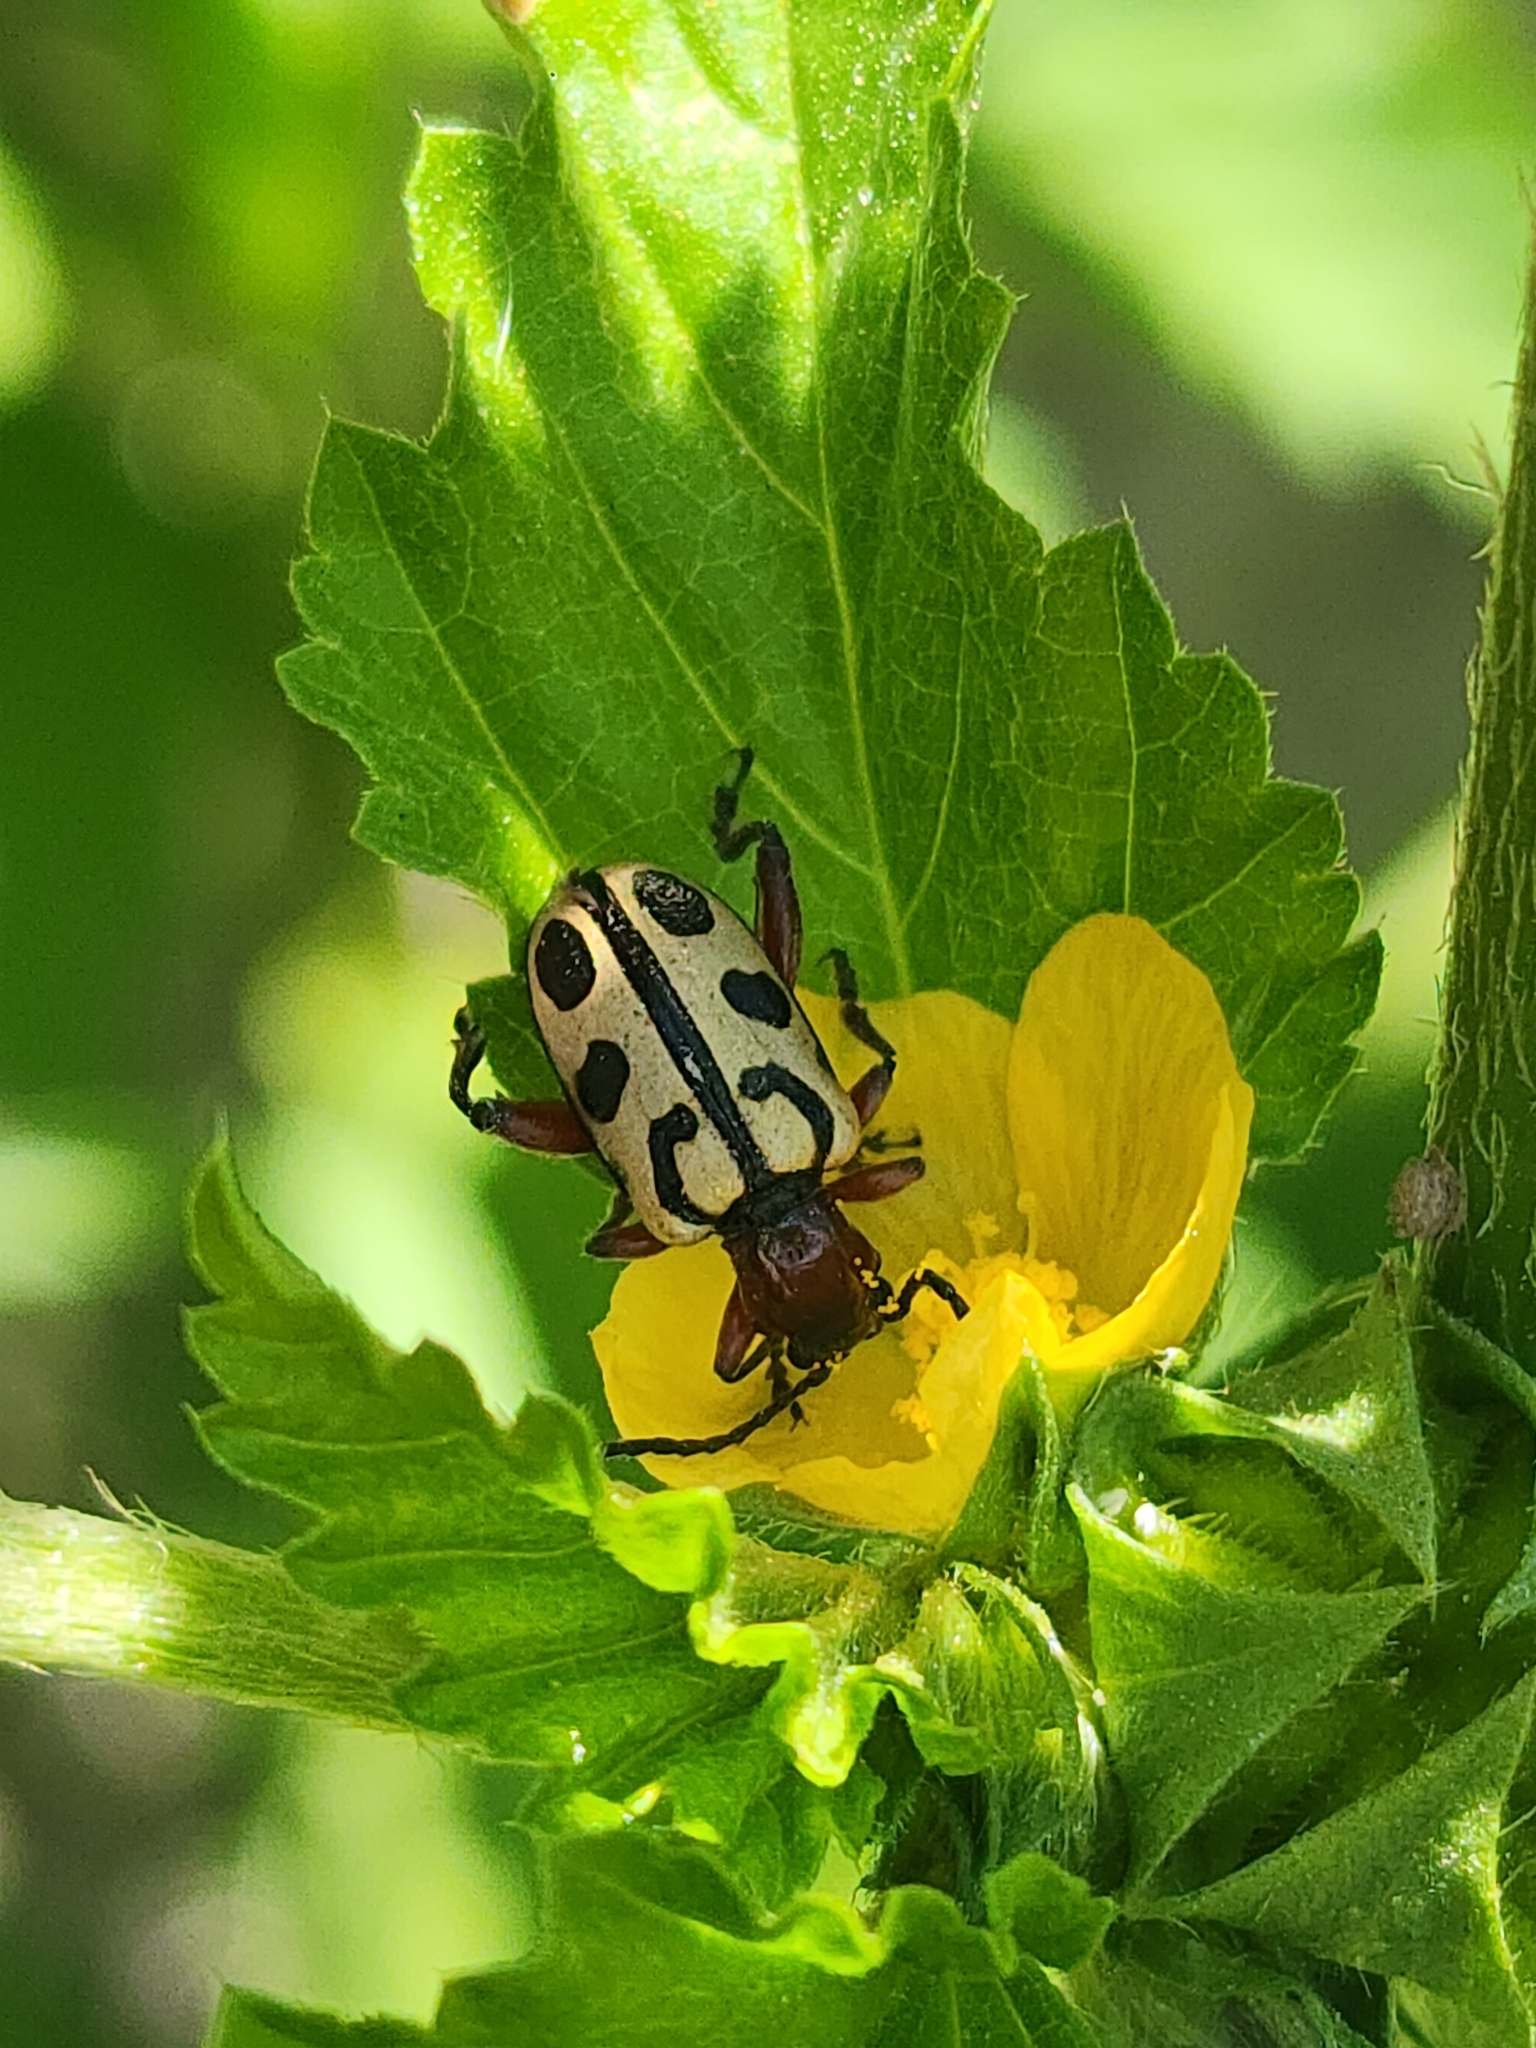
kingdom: Animalia
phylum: Arthropoda
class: Insecta
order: Coleoptera
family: Chrysomelidae
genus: Atalasis
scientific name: Atalasis
